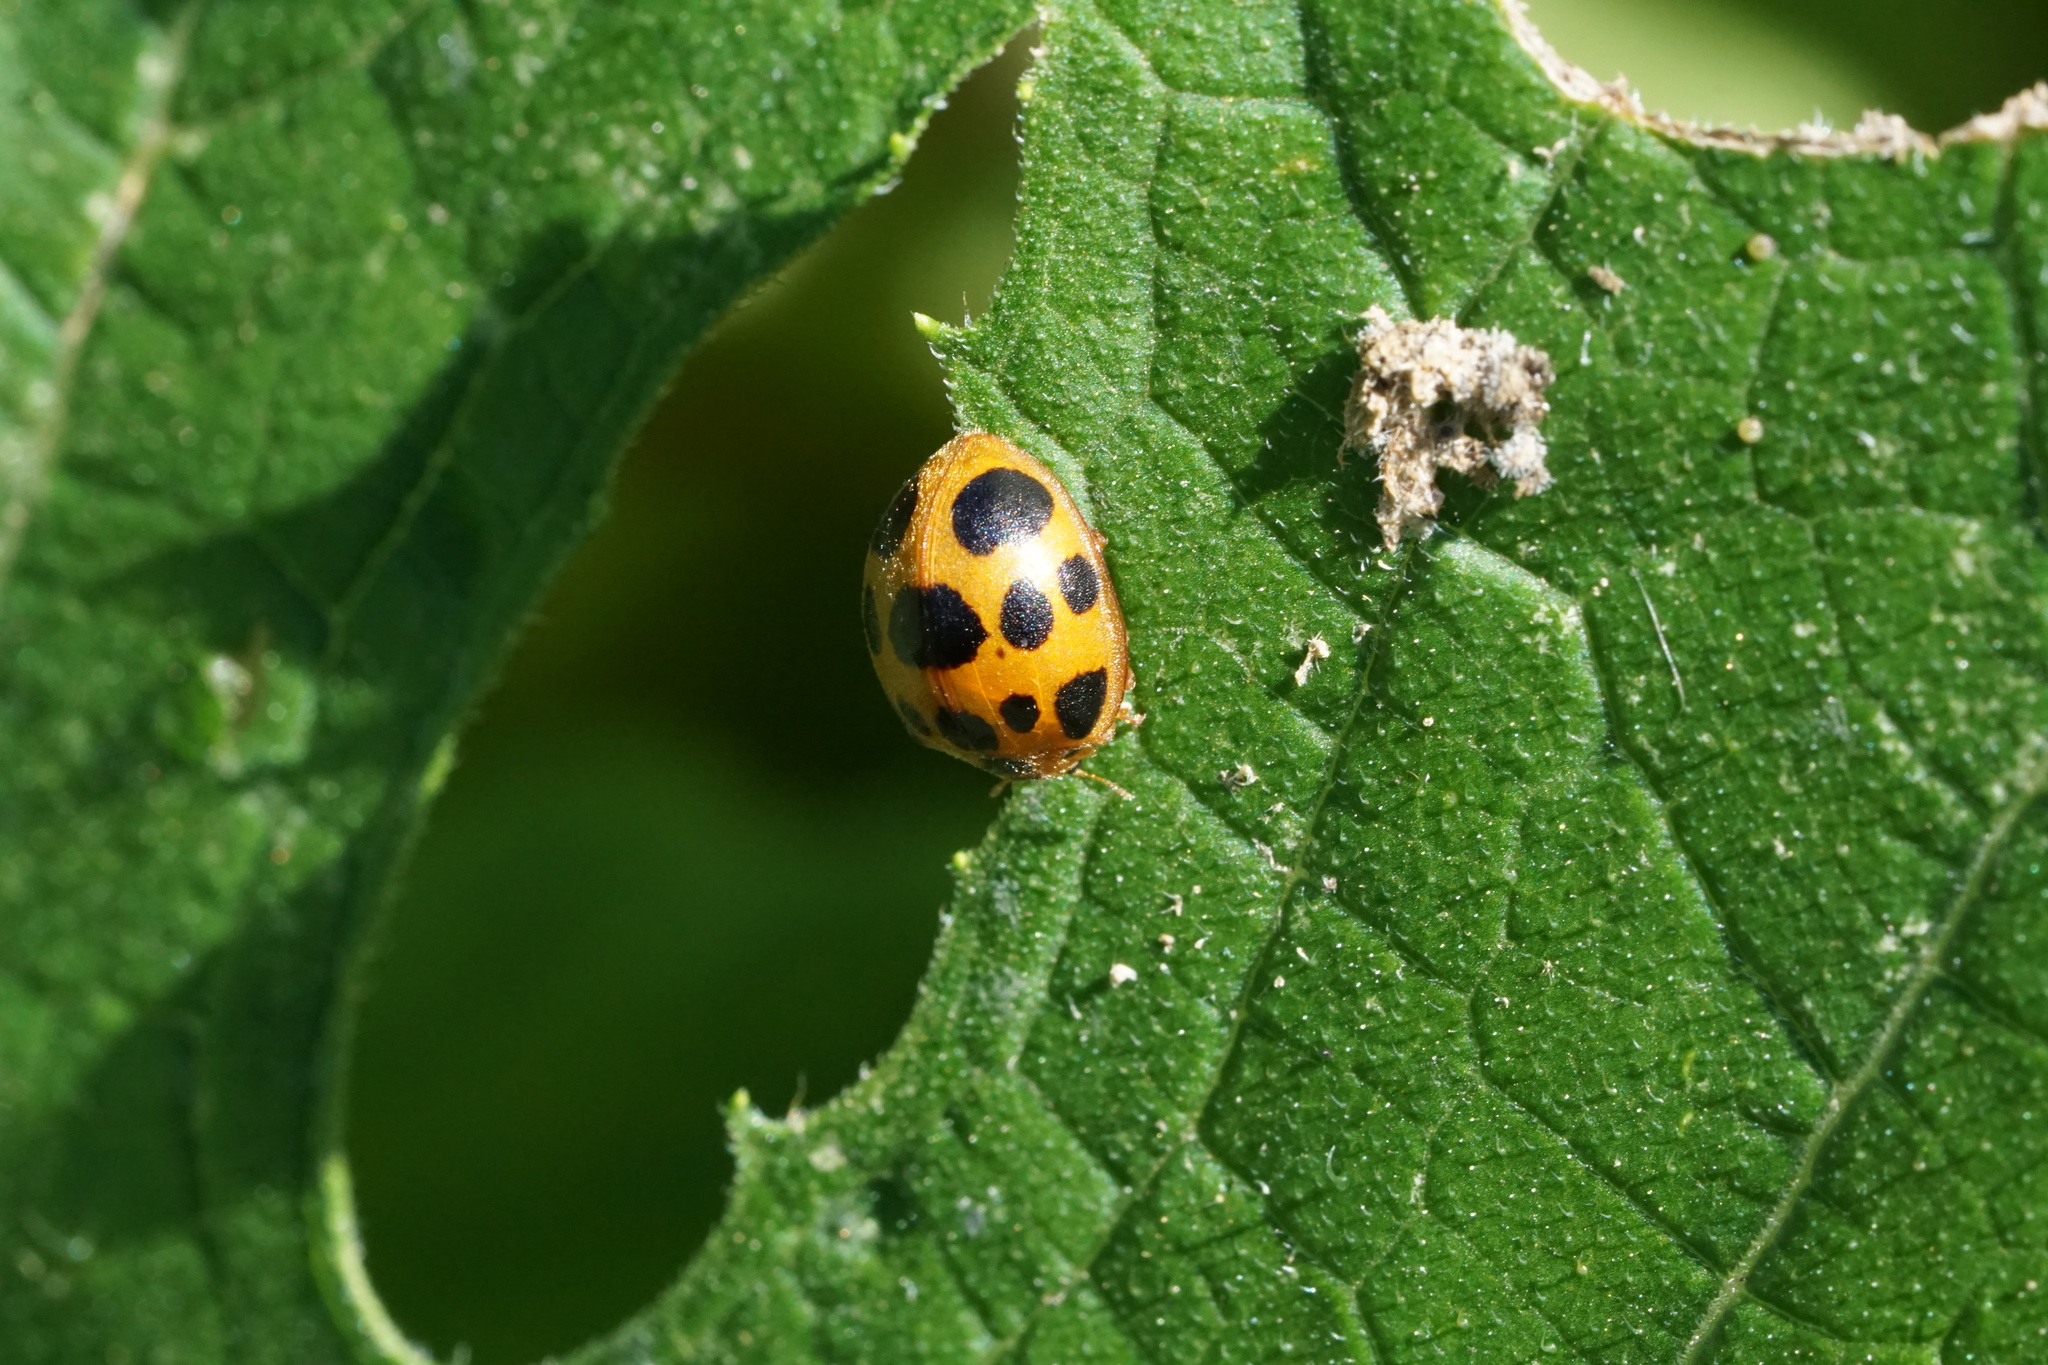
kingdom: Animalia
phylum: Arthropoda
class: Insecta
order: Coleoptera
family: Coccinellidae
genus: Epilachna
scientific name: Epilachna borealis
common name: Squash beetle
